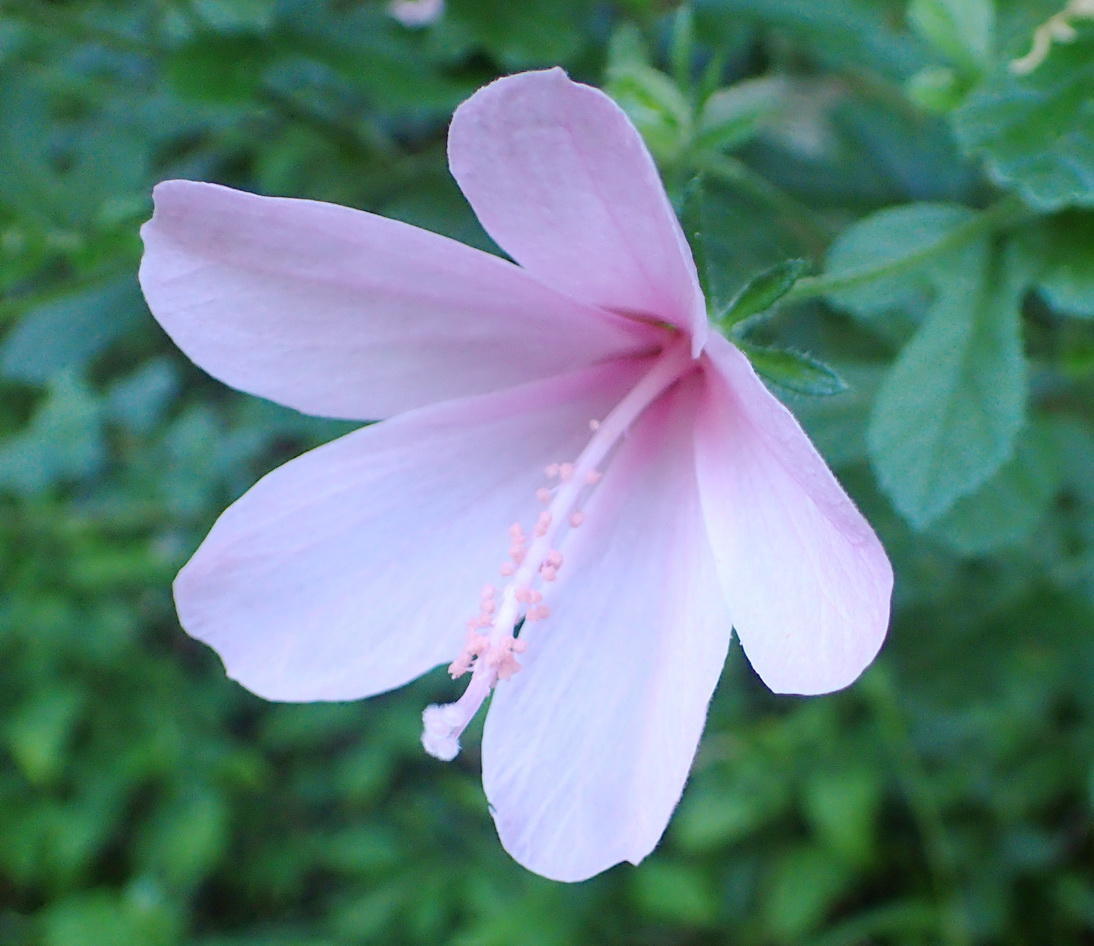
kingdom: Plantae
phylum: Tracheophyta
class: Magnoliopsida
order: Malvales
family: Malvaceae
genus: Hibiscus
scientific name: Hibiscus pedunculatus
